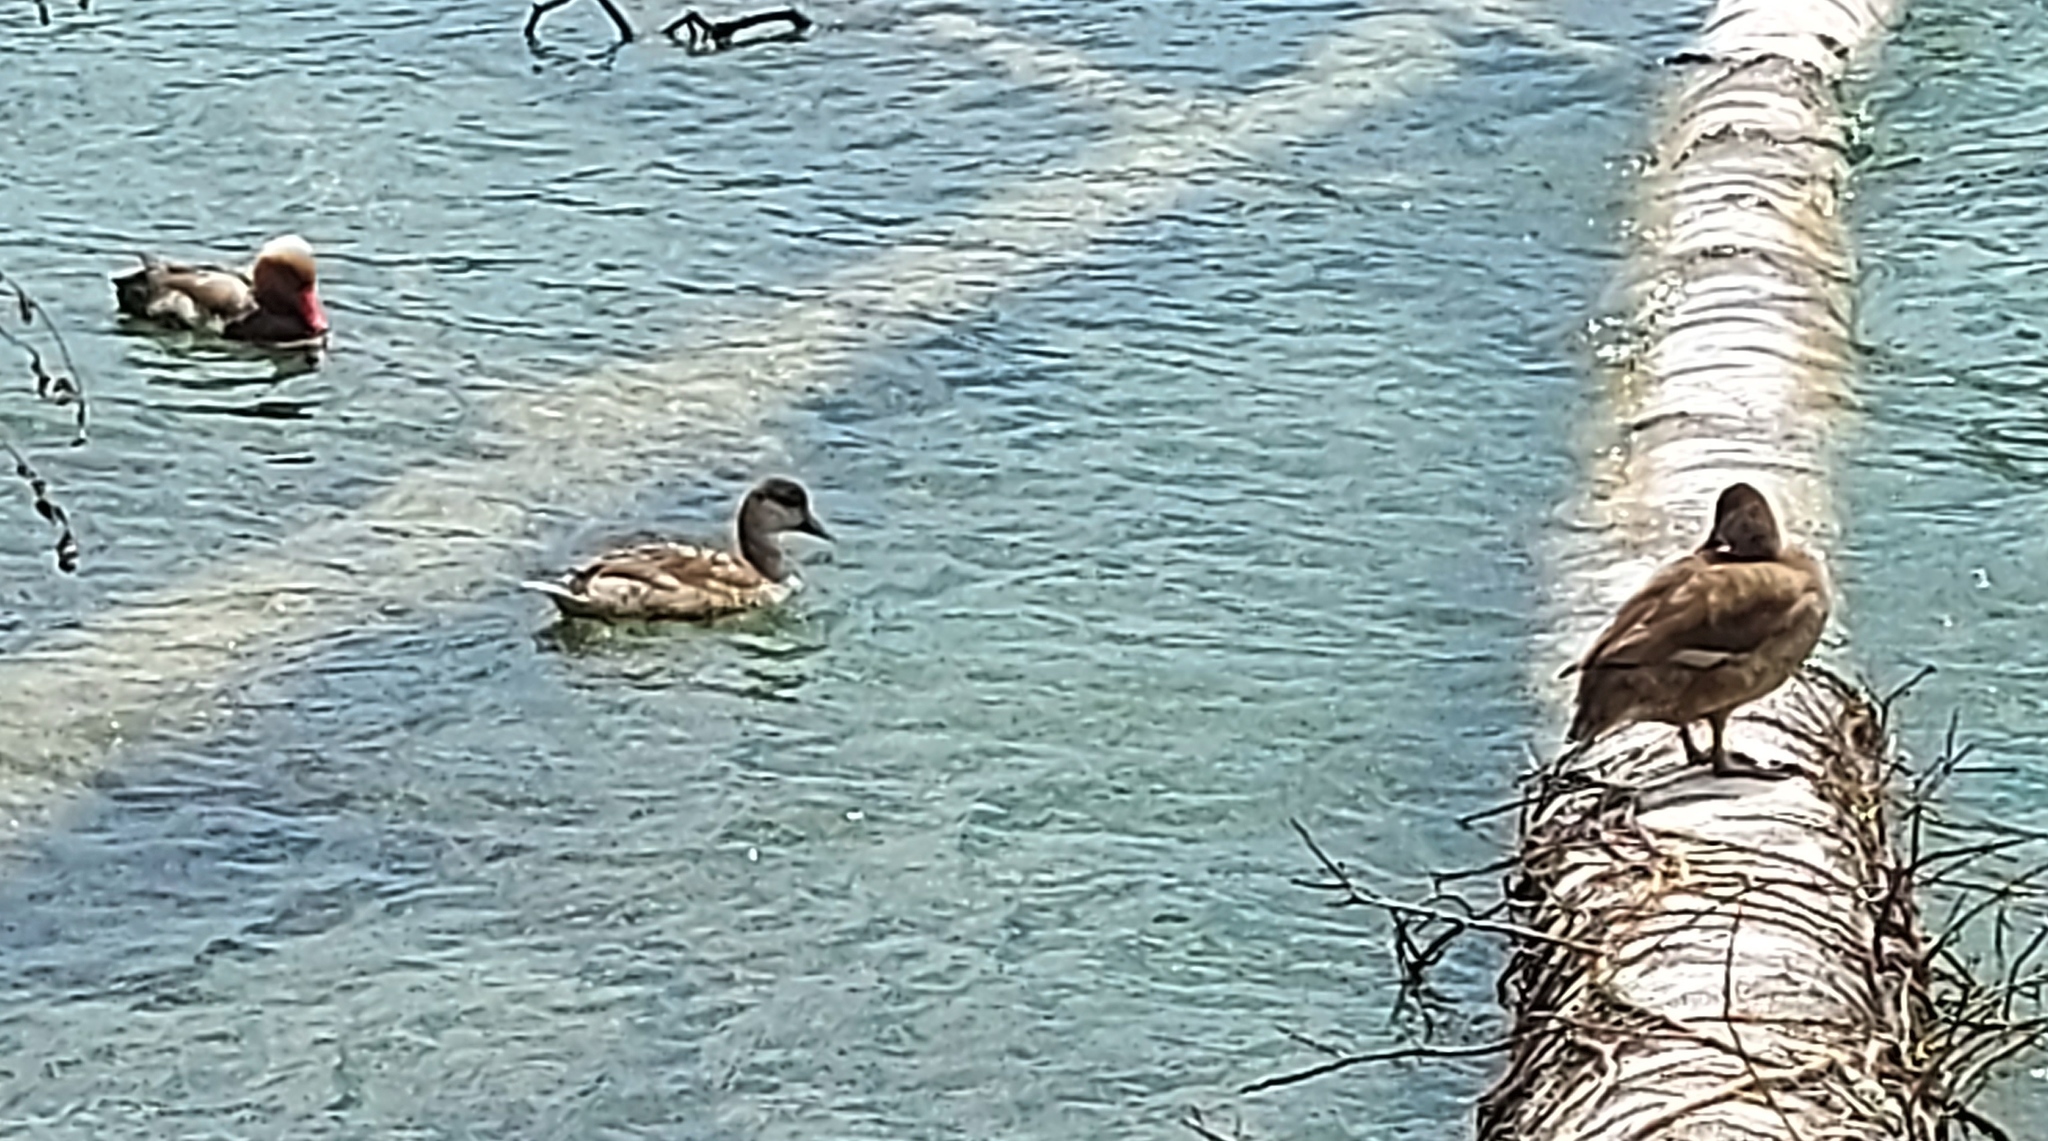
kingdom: Animalia
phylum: Chordata
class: Aves
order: Anseriformes
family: Anatidae
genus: Netta
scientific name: Netta rufina
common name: Red-crested pochard
